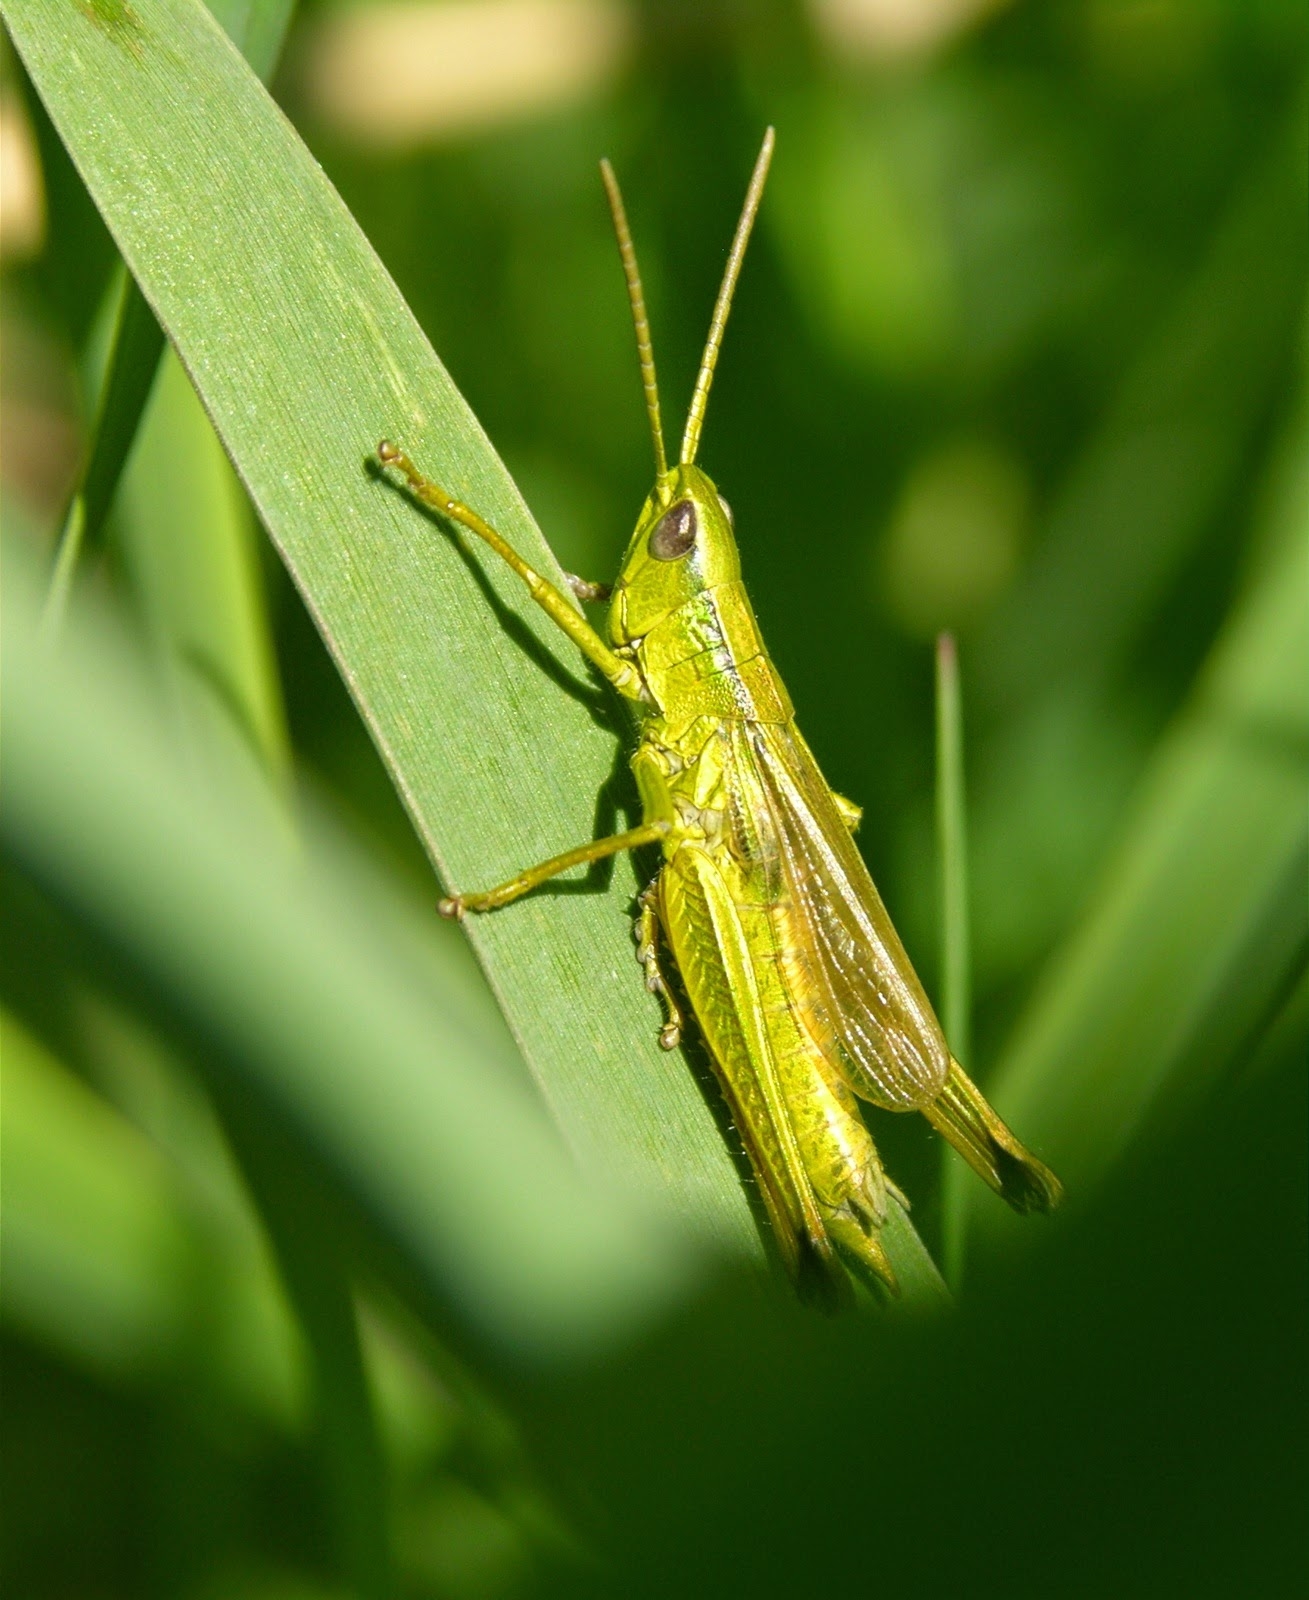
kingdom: Animalia
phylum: Arthropoda
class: Insecta
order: Orthoptera
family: Acrididae
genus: Chrysochraon
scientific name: Chrysochraon dispar
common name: Large gold grasshopper
